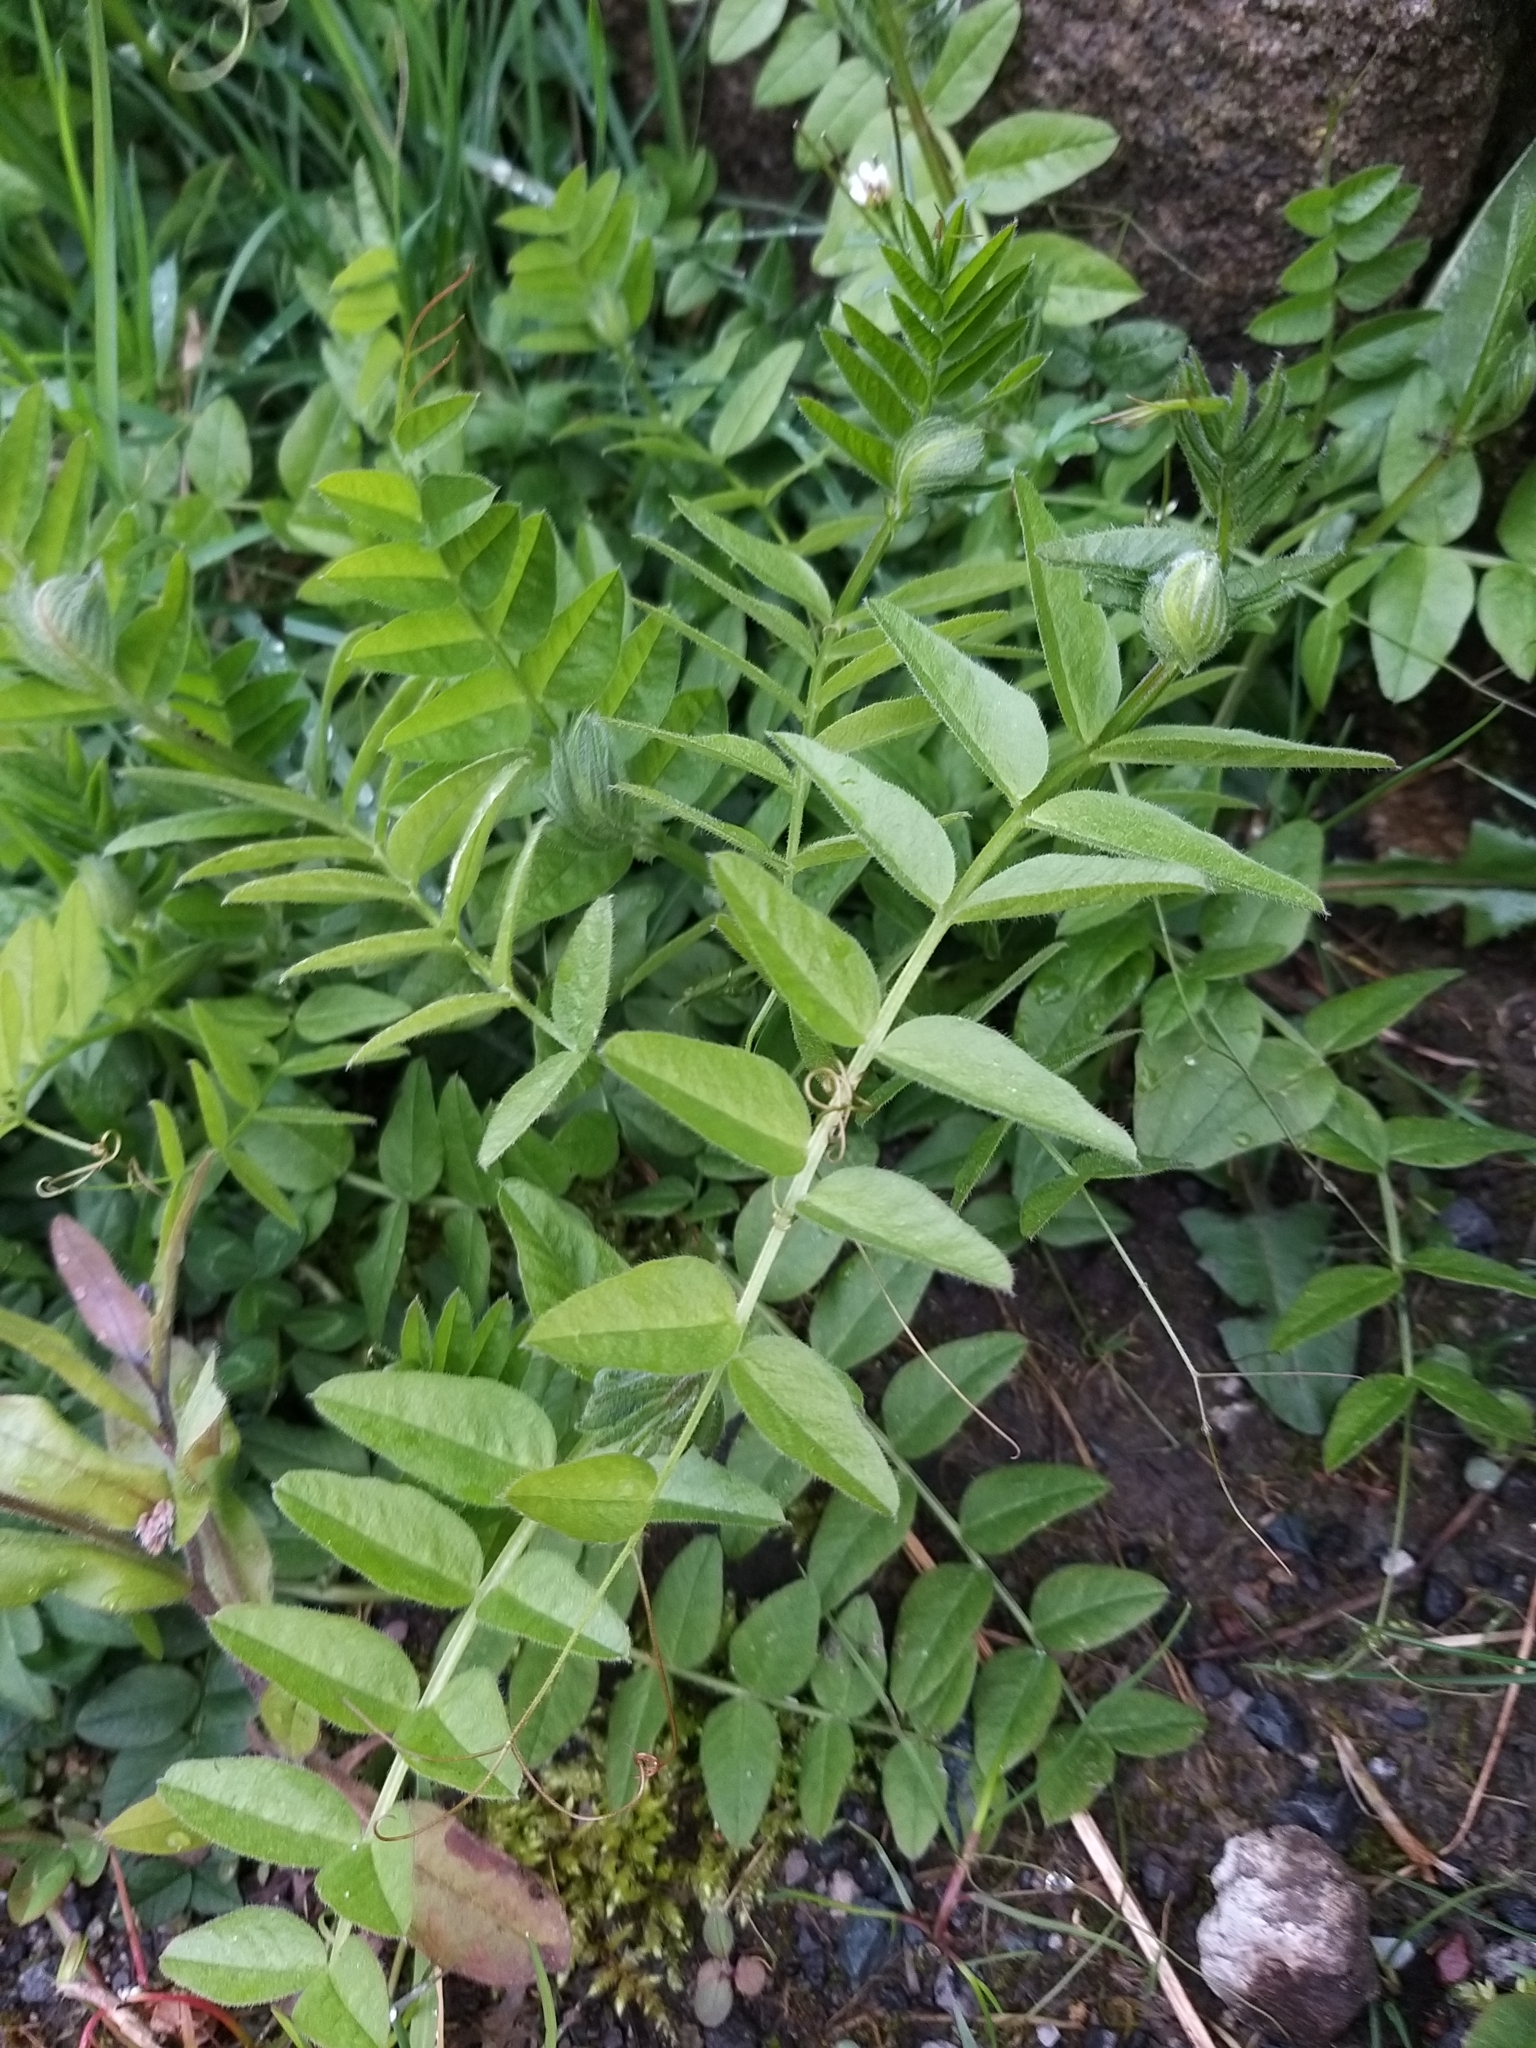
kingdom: Plantae
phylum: Tracheophyta
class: Magnoliopsida
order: Fabales
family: Fabaceae
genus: Vicia
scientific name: Vicia sepium
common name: Bush vetch
